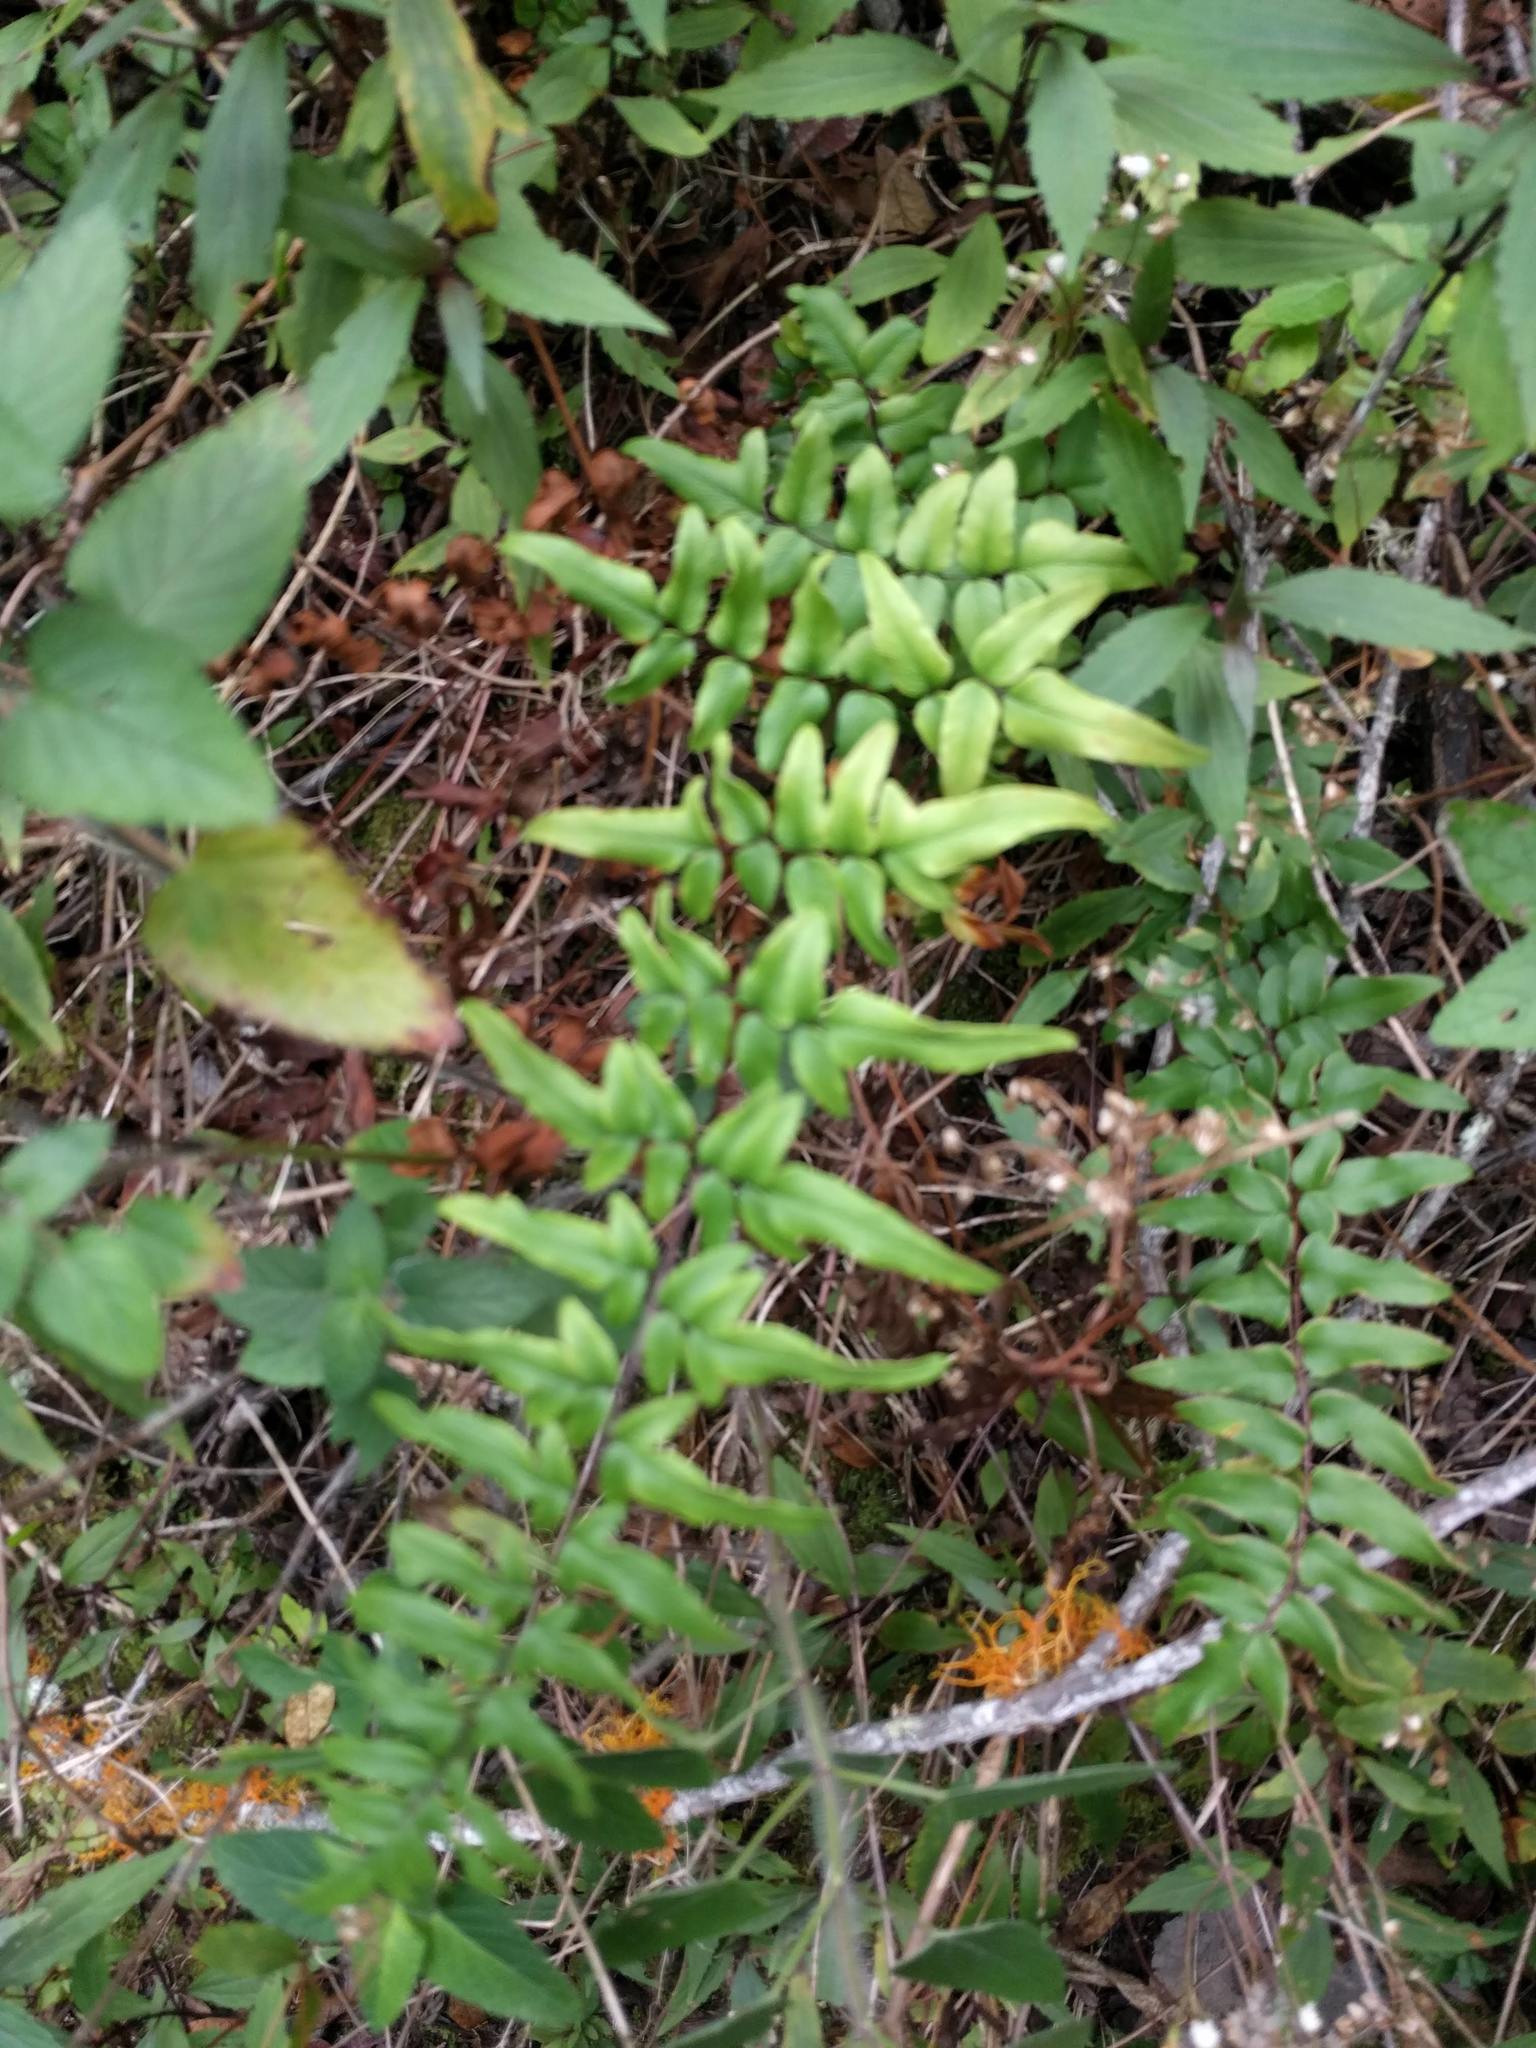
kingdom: Plantae
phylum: Tracheophyta
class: Polypodiopsida
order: Polypodiales
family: Pteridaceae
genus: Cheilanthes
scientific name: Cheilanthes viridis
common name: Green cliffbrake
